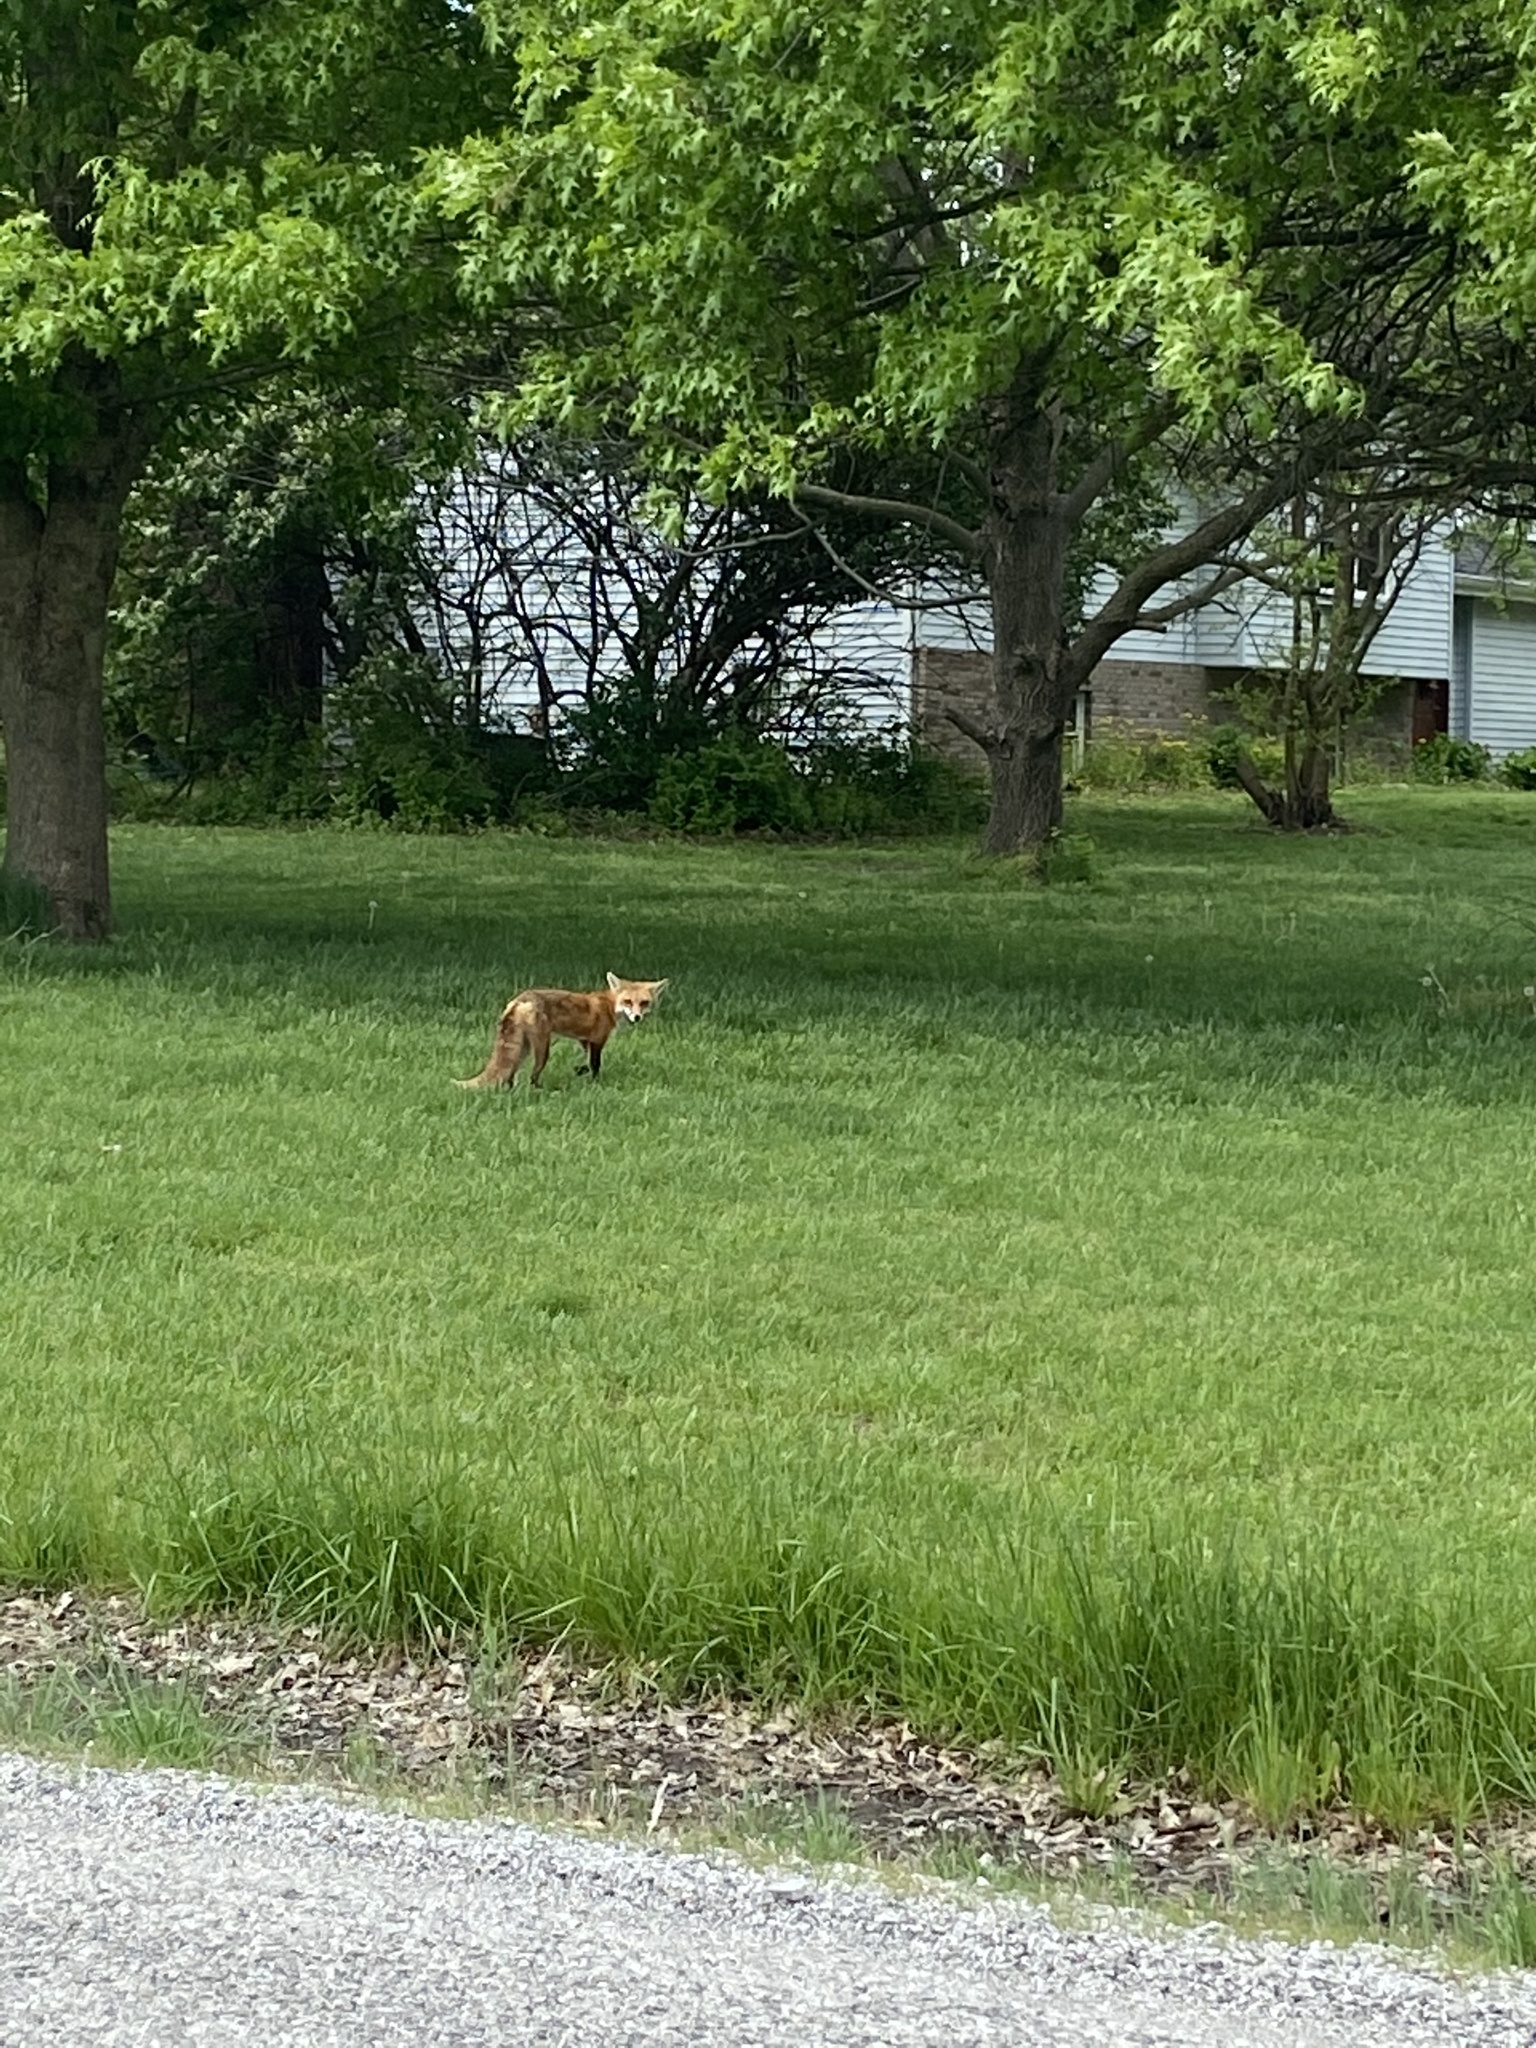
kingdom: Animalia
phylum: Chordata
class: Mammalia
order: Carnivora
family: Canidae
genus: Vulpes
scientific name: Vulpes vulpes
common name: Red fox
